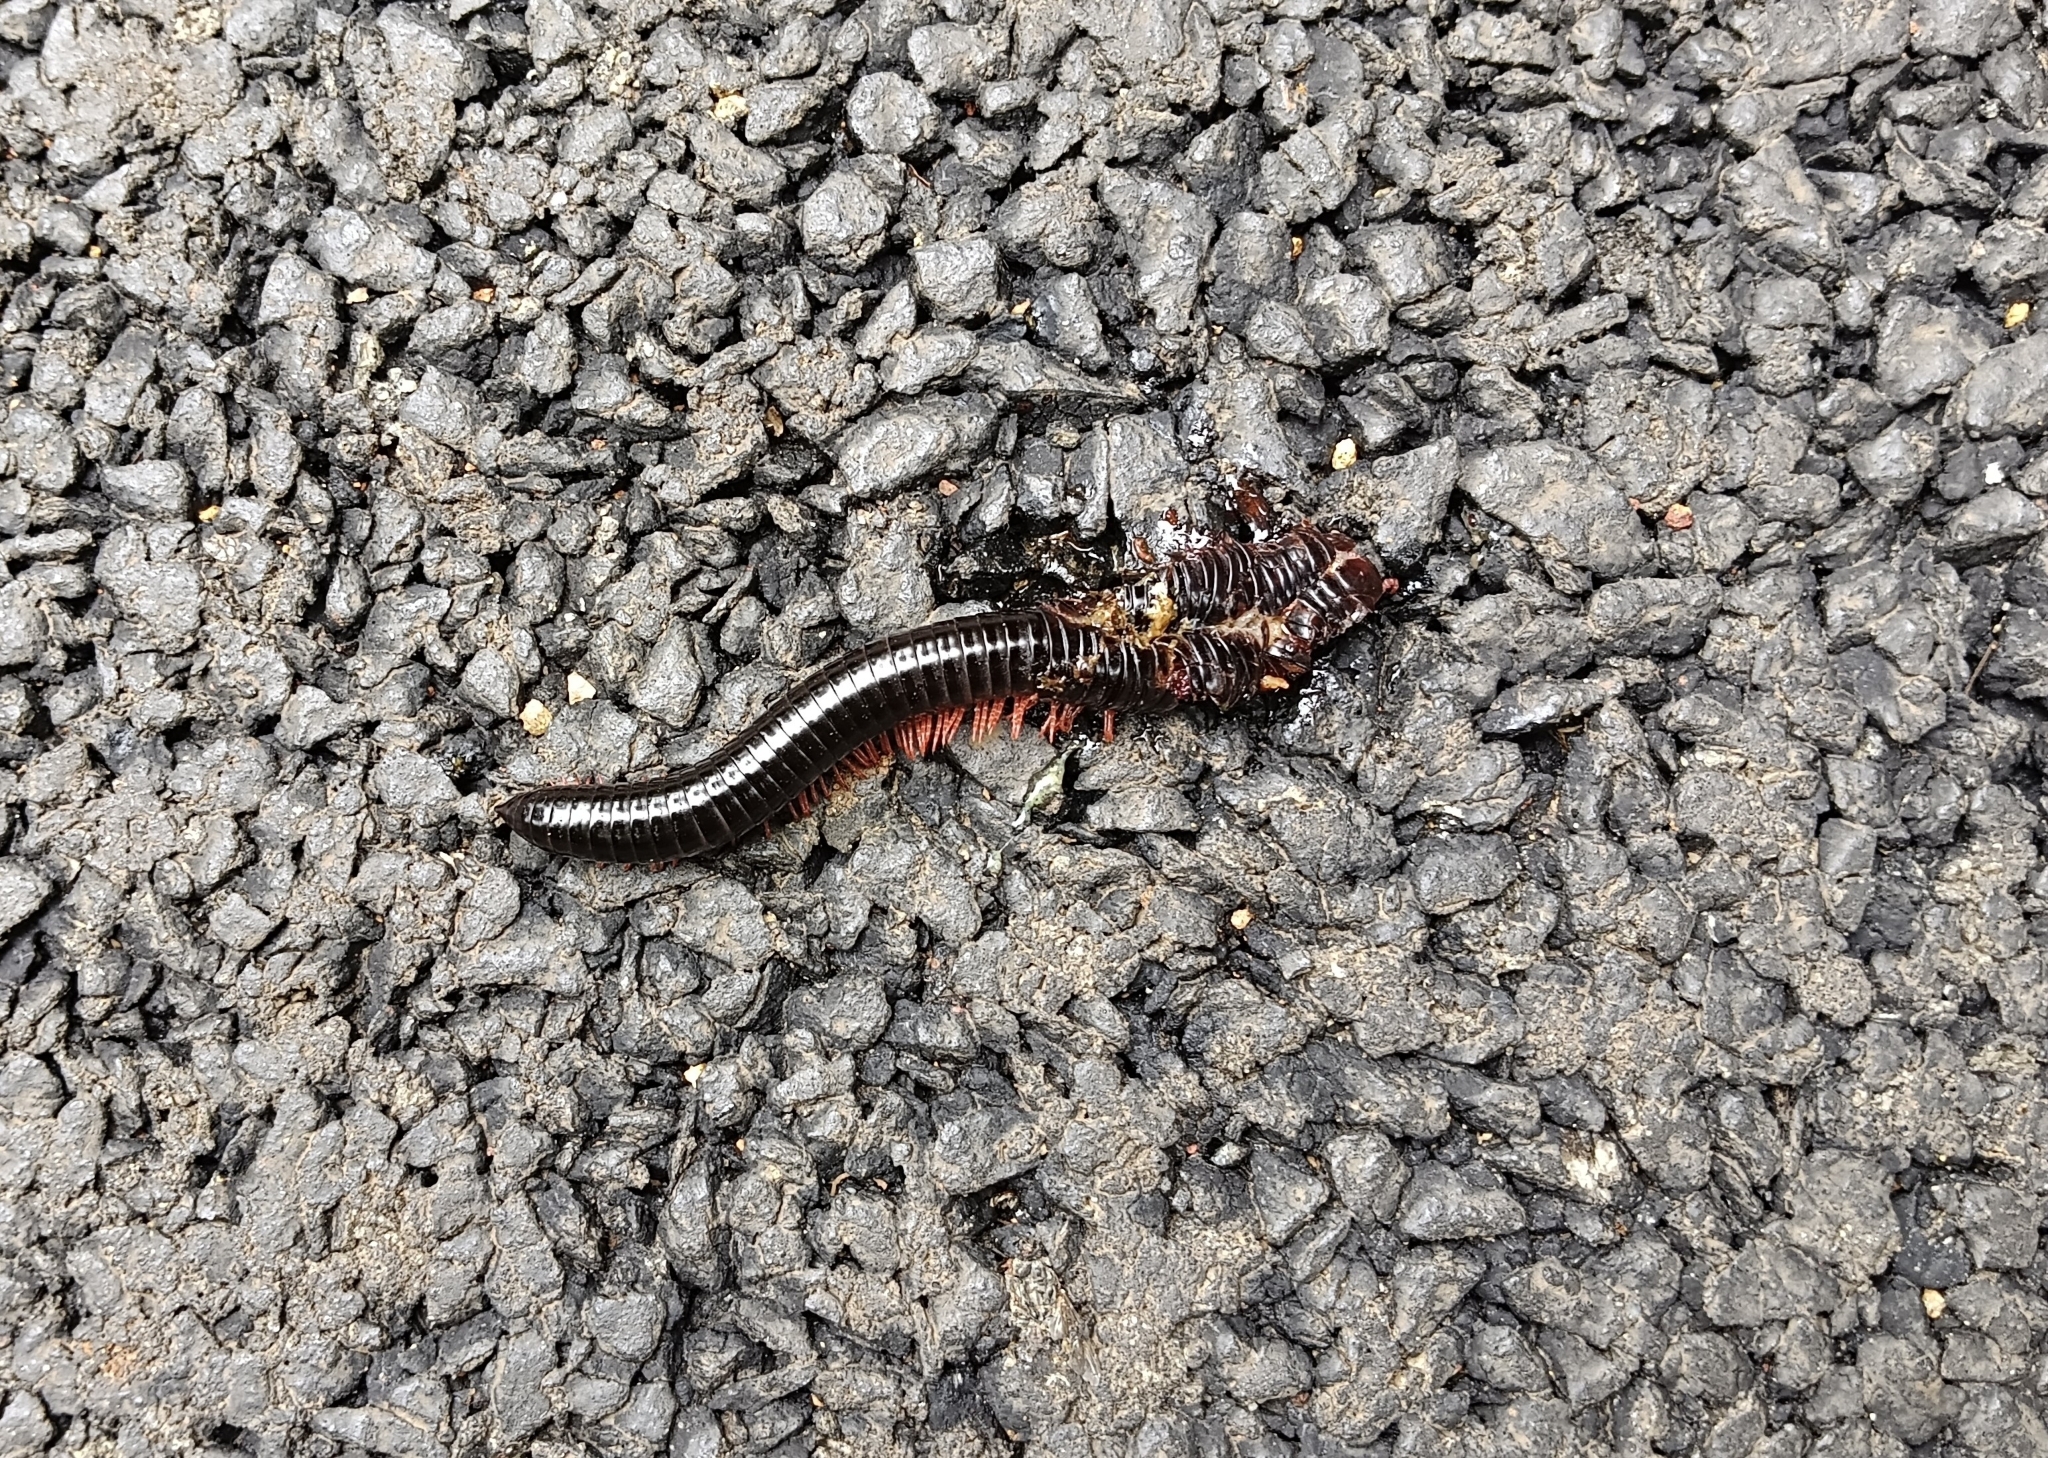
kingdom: Animalia
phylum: Arthropoda
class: Diplopoda
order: Spirostreptida
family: Harpagophoridae
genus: Phyllogonostreptus
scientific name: Phyllogonostreptus nigrolabiatus
